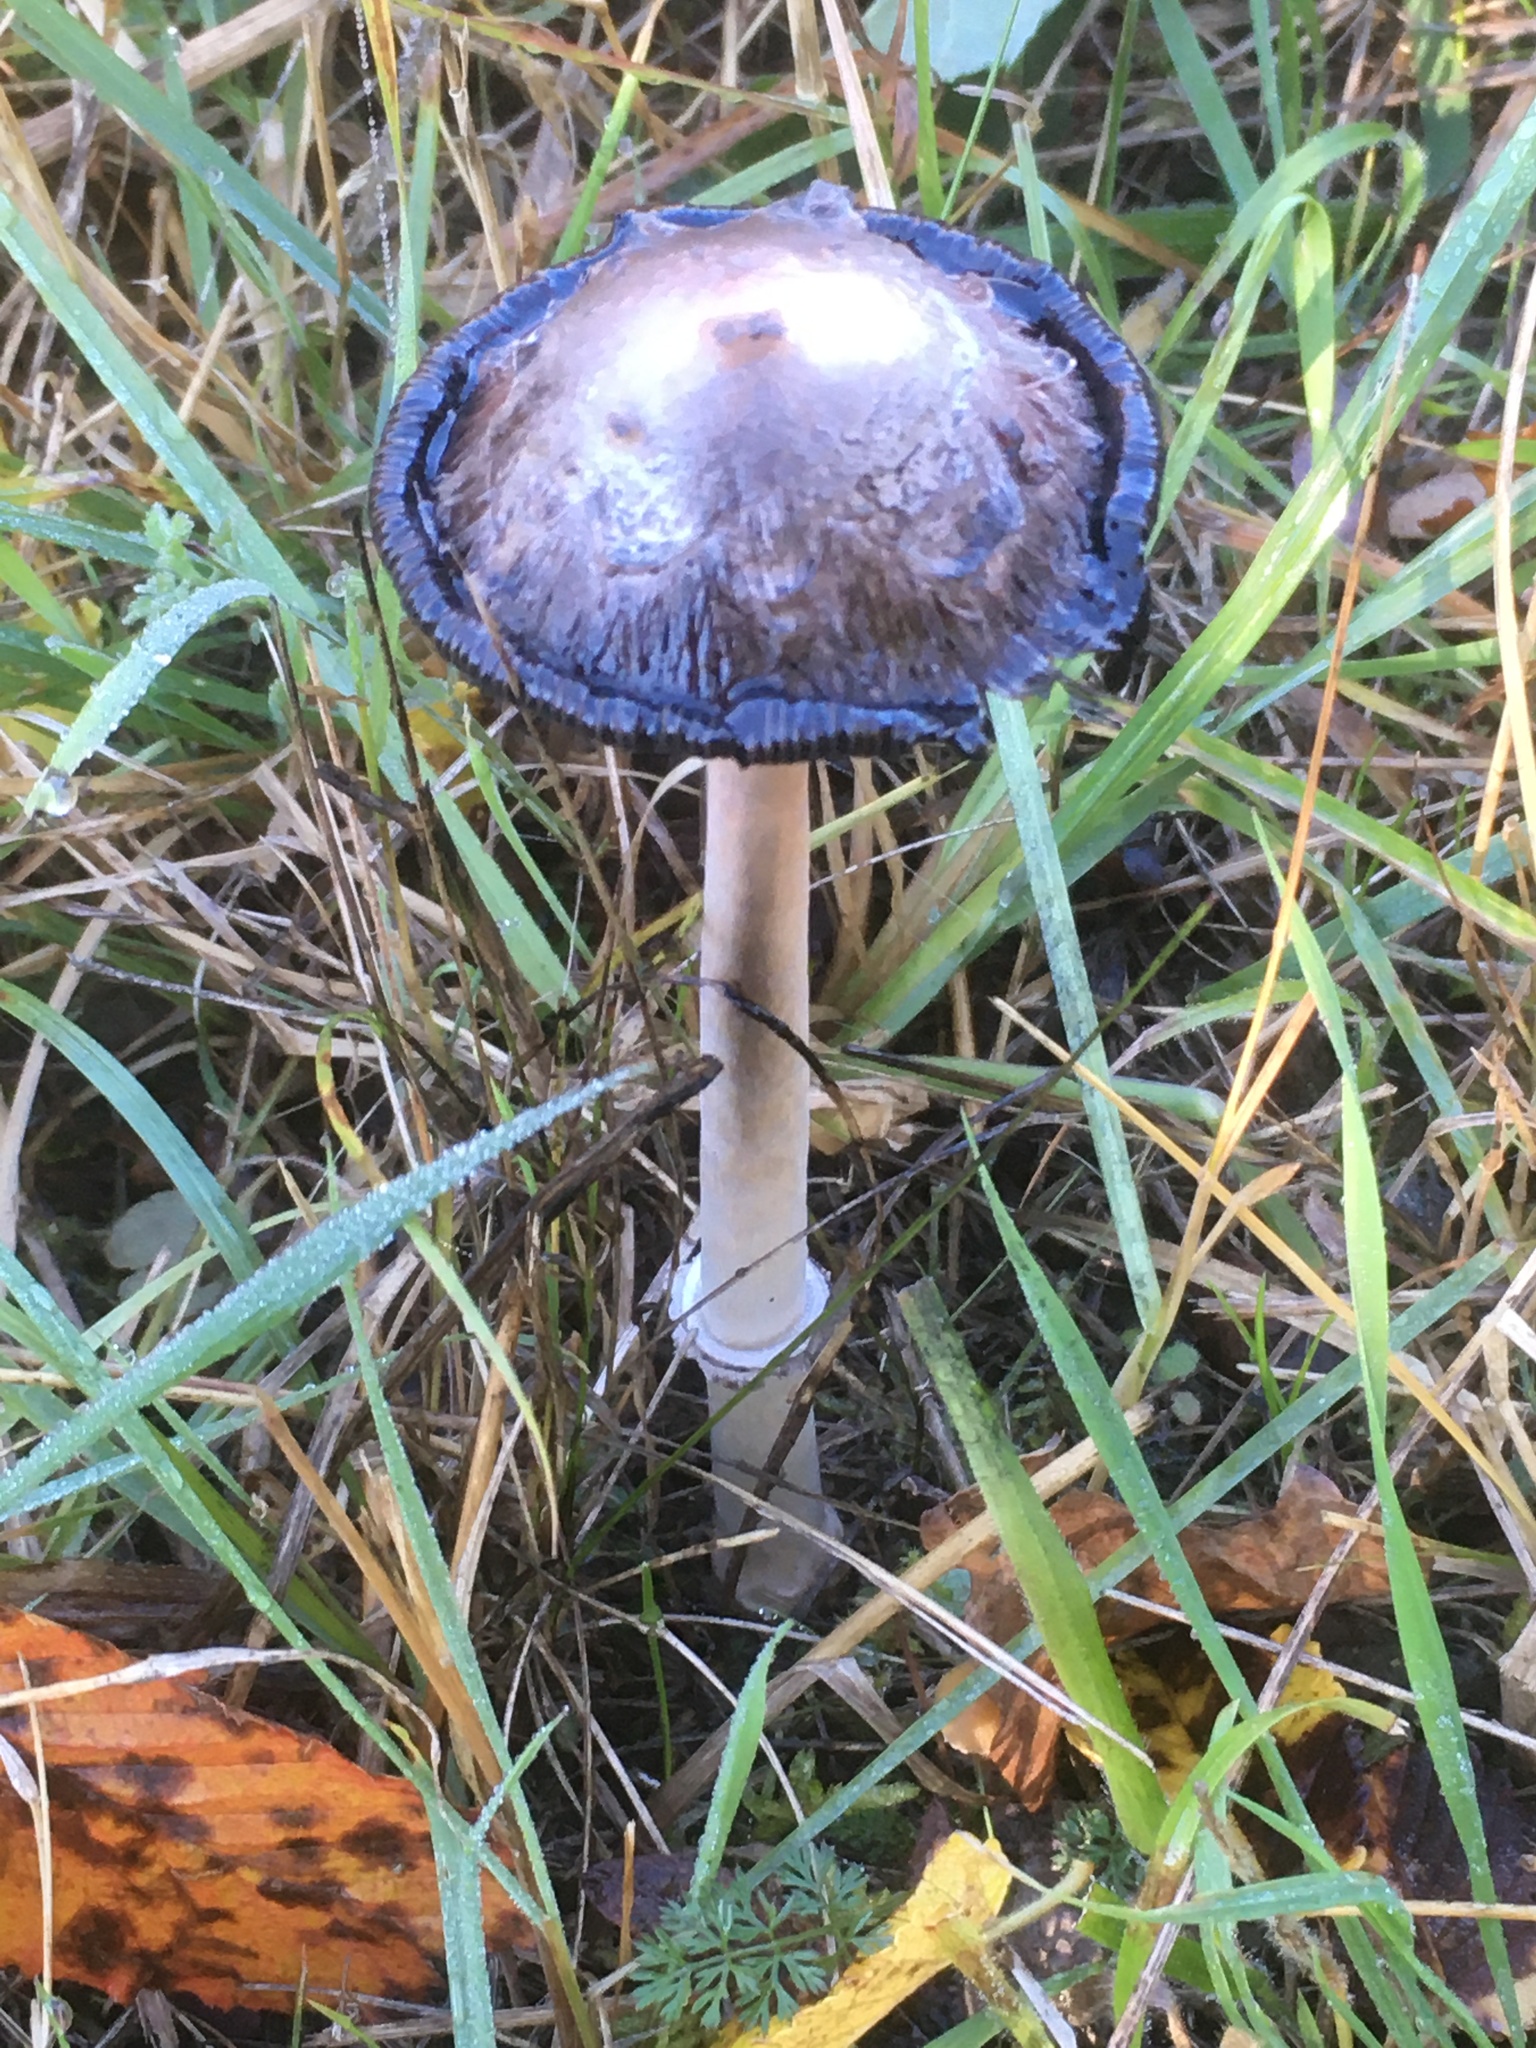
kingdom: Fungi
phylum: Basidiomycota
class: Agaricomycetes
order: Agaricales
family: Agaricaceae
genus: Coprinus
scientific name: Coprinus comatus
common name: Lawyer's wig
